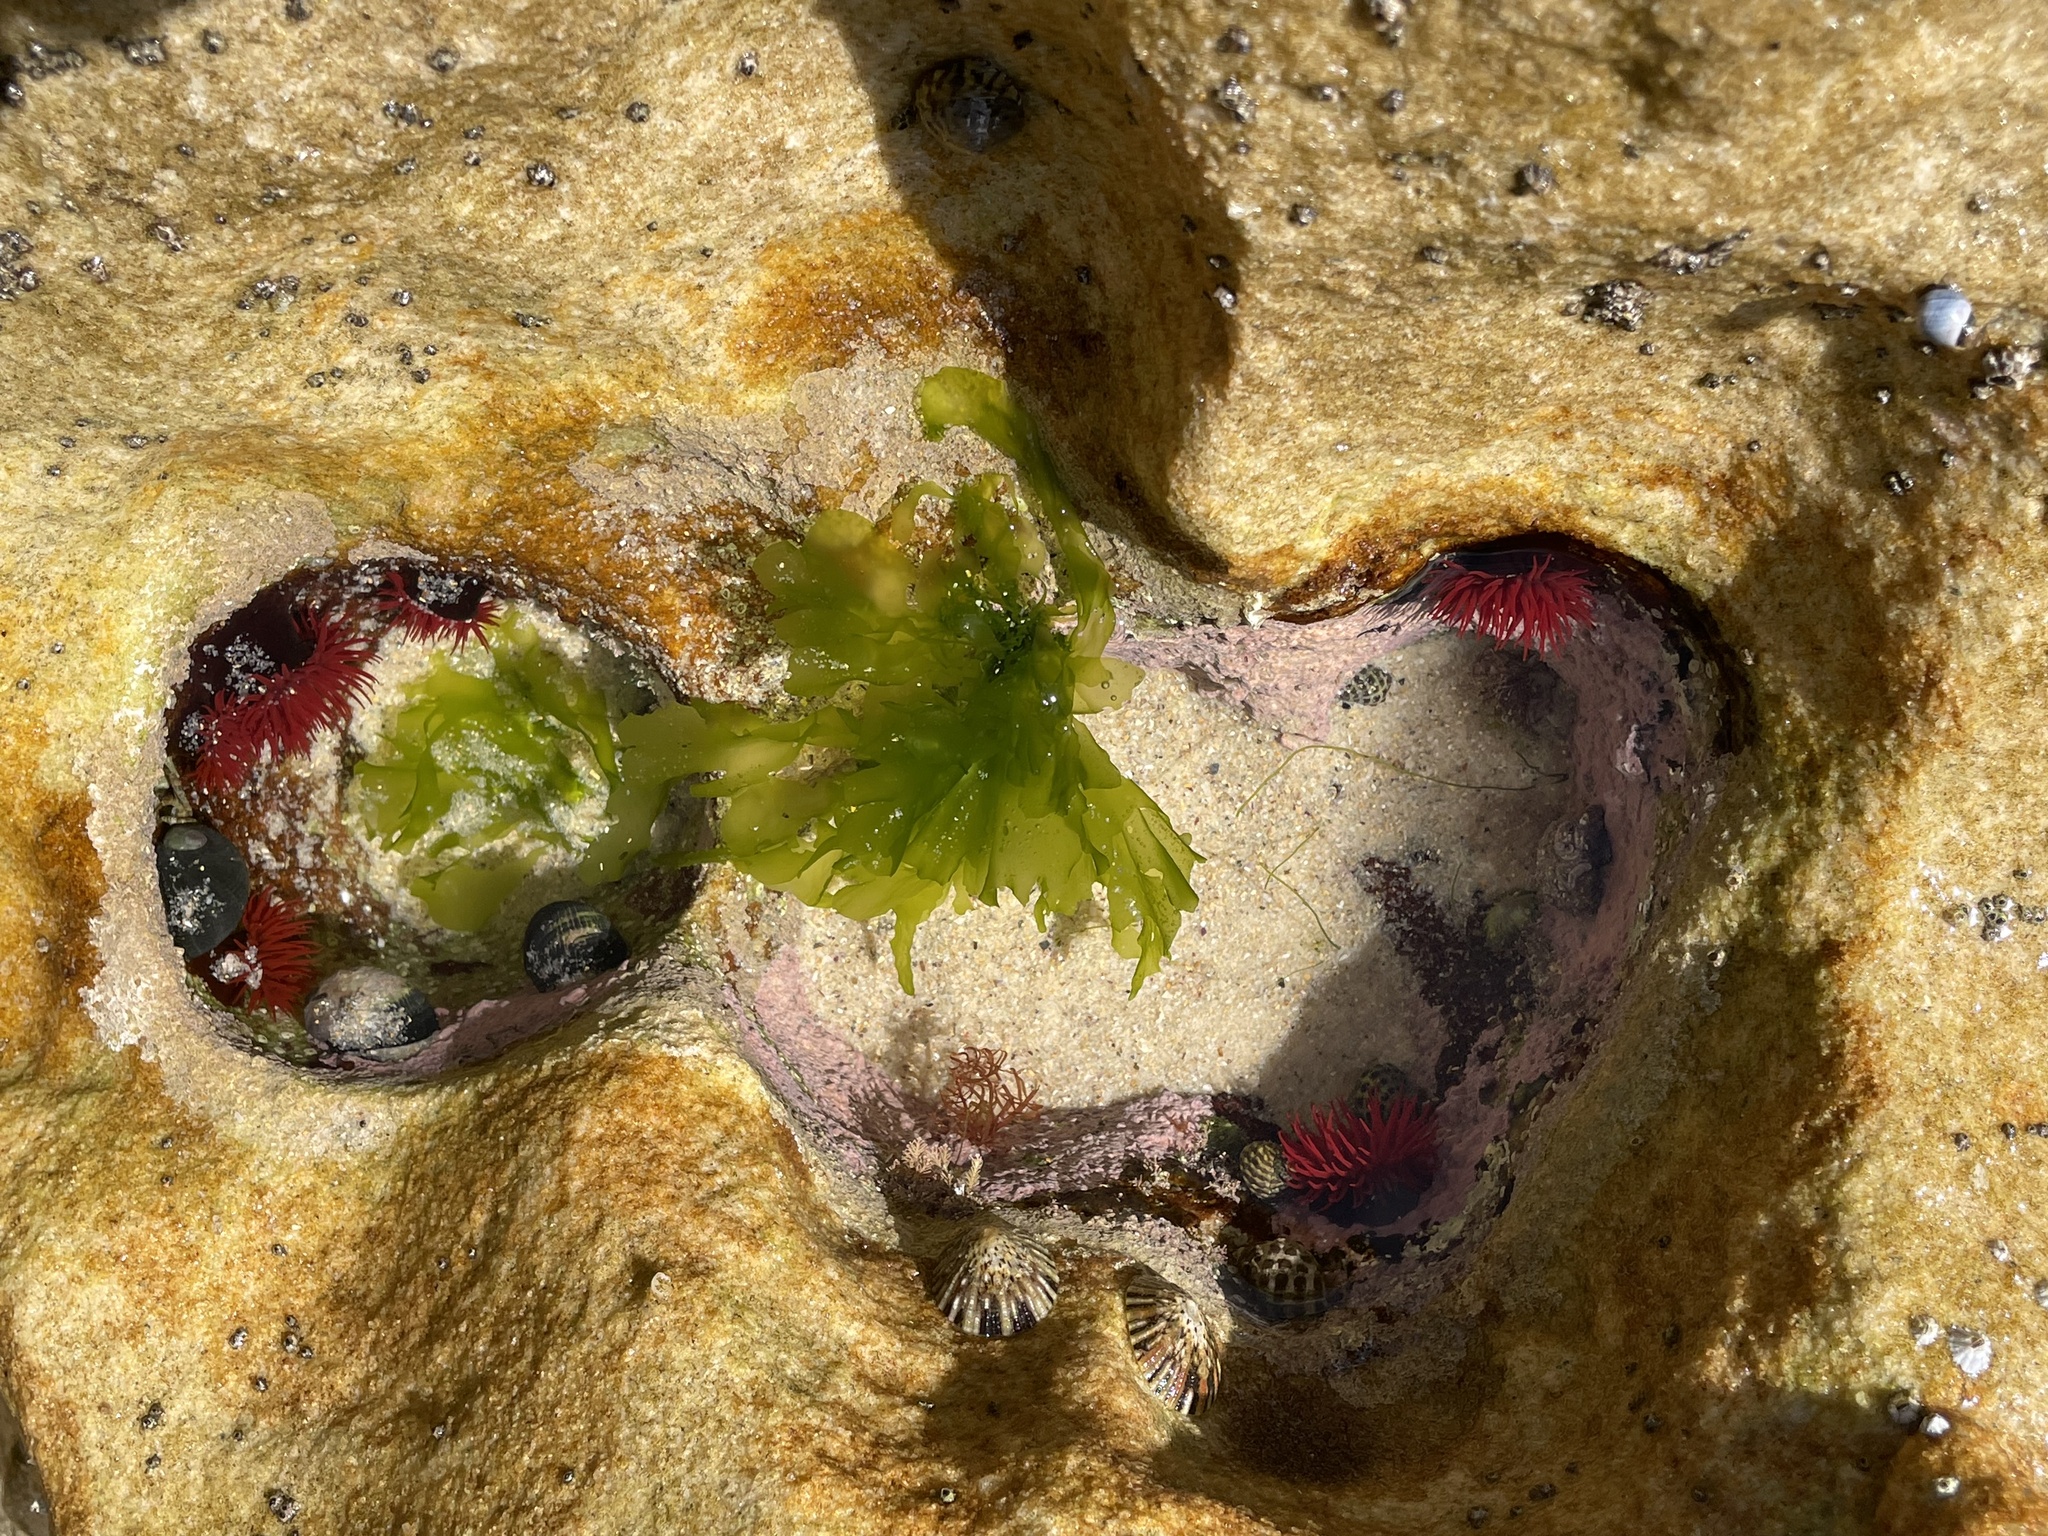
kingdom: Animalia
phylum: Cnidaria
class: Anthozoa
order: Actiniaria
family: Actiniidae
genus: Actinia
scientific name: Actinia tenebrosa
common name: Waratah anemone
